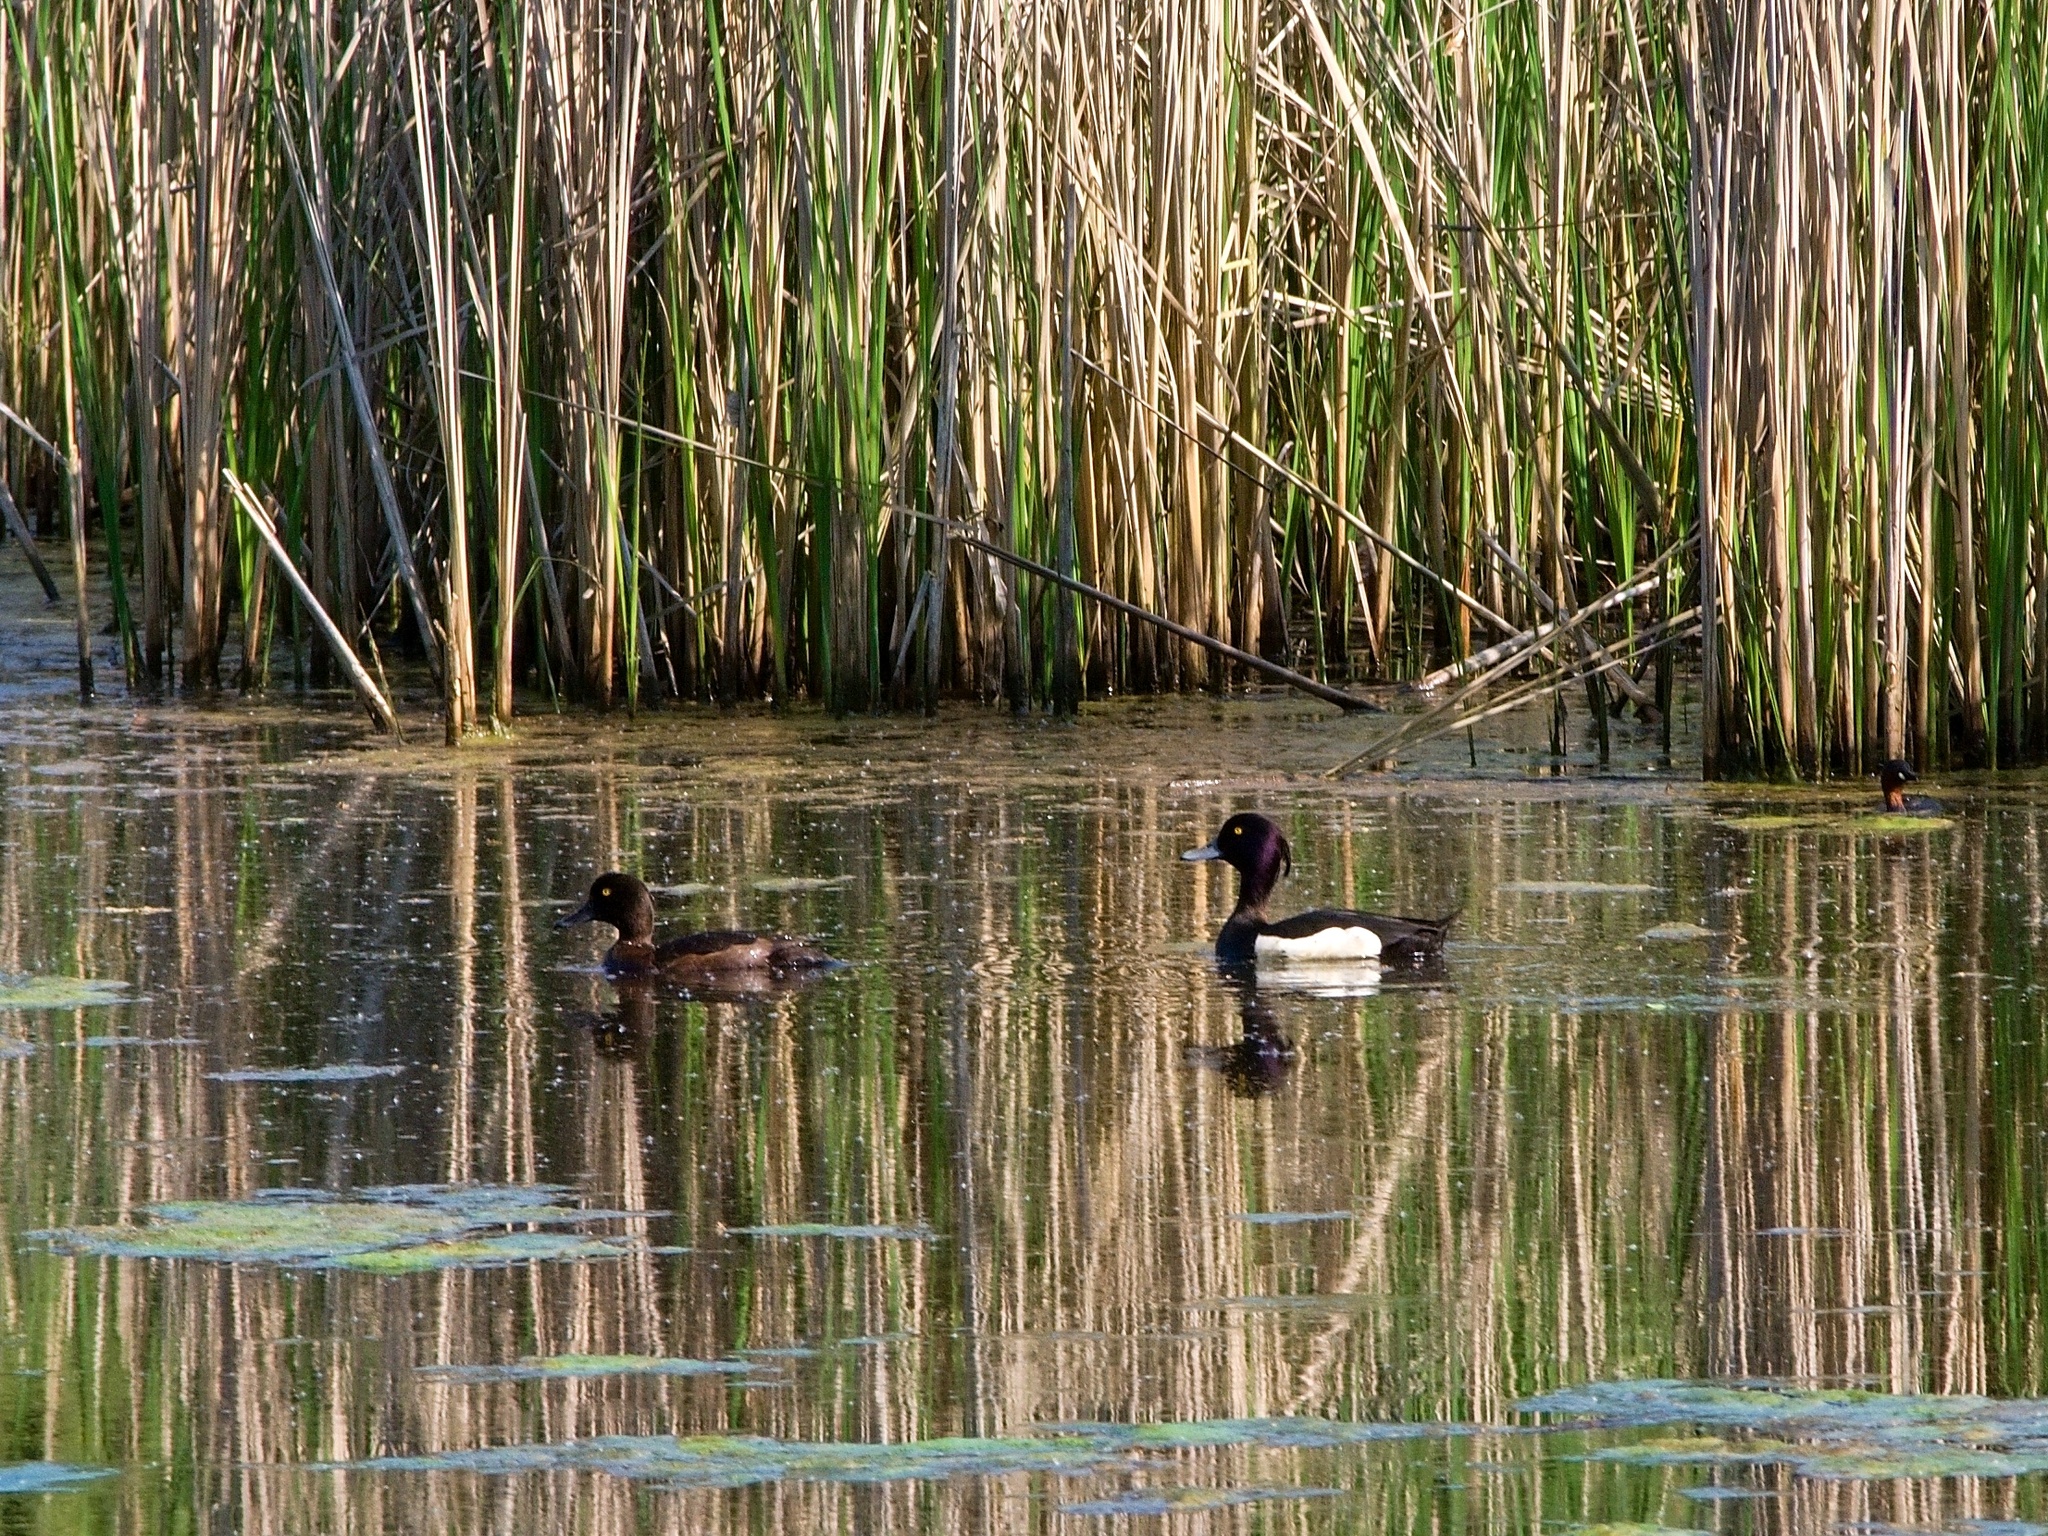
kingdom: Animalia
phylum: Chordata
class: Aves
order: Anseriformes
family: Anatidae
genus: Aythya
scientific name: Aythya fuligula
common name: Tufted duck
